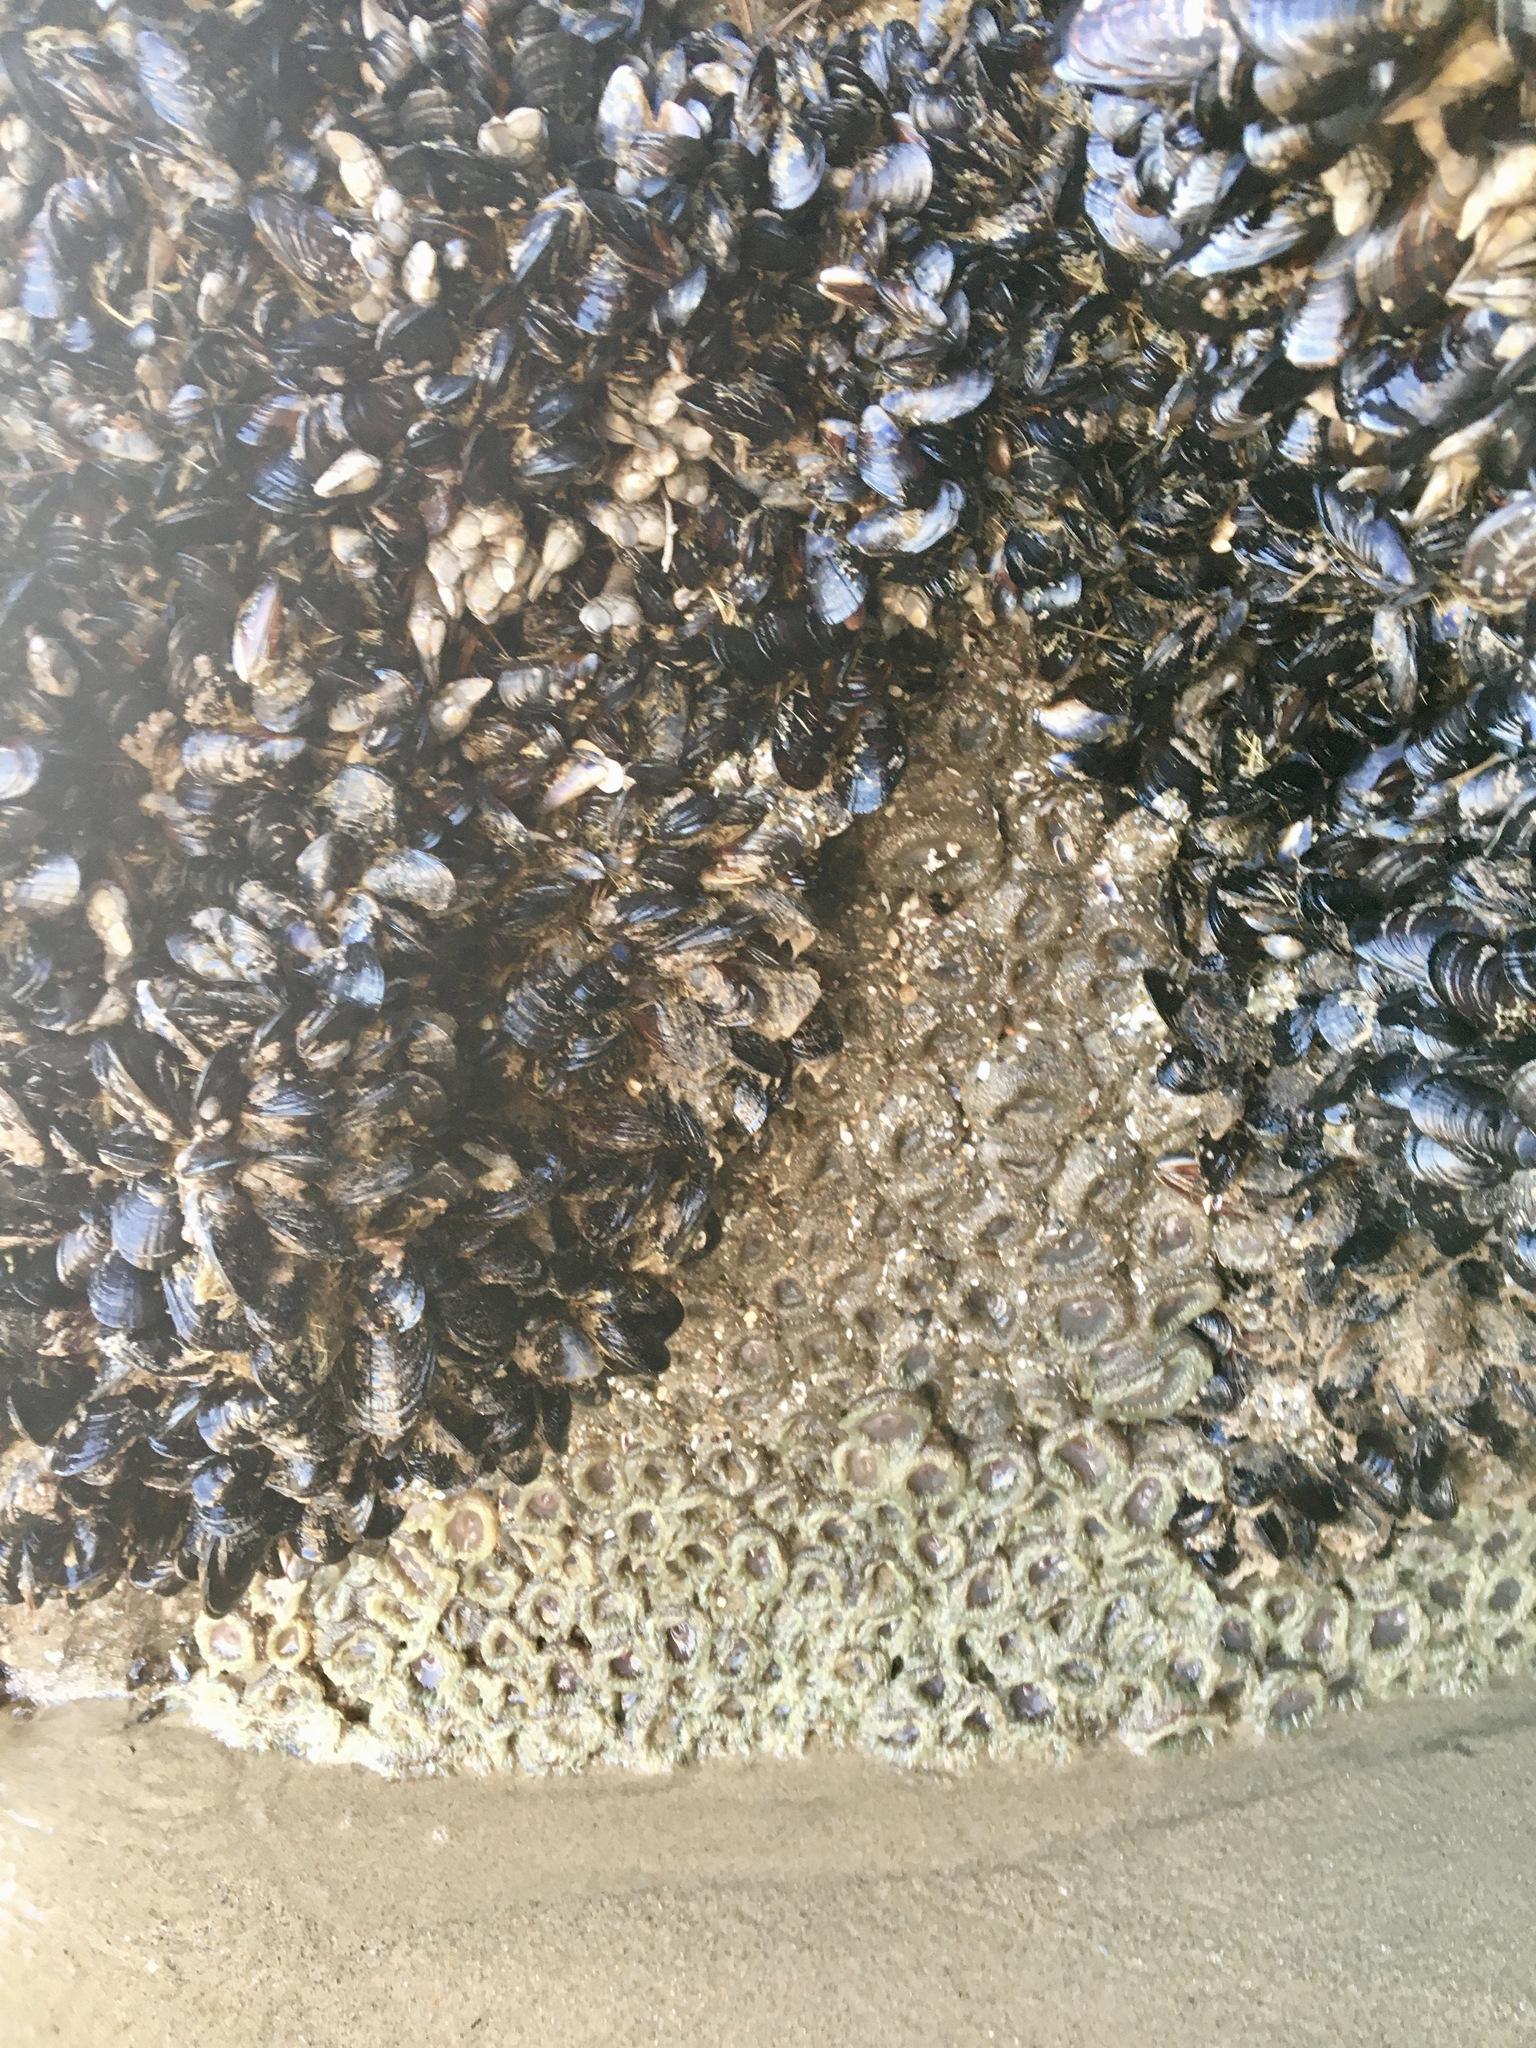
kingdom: Animalia
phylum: Cnidaria
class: Anthozoa
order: Actiniaria
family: Actiniidae
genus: Anthopleura
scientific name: Anthopleura elegantissima
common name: Clonal anemone
